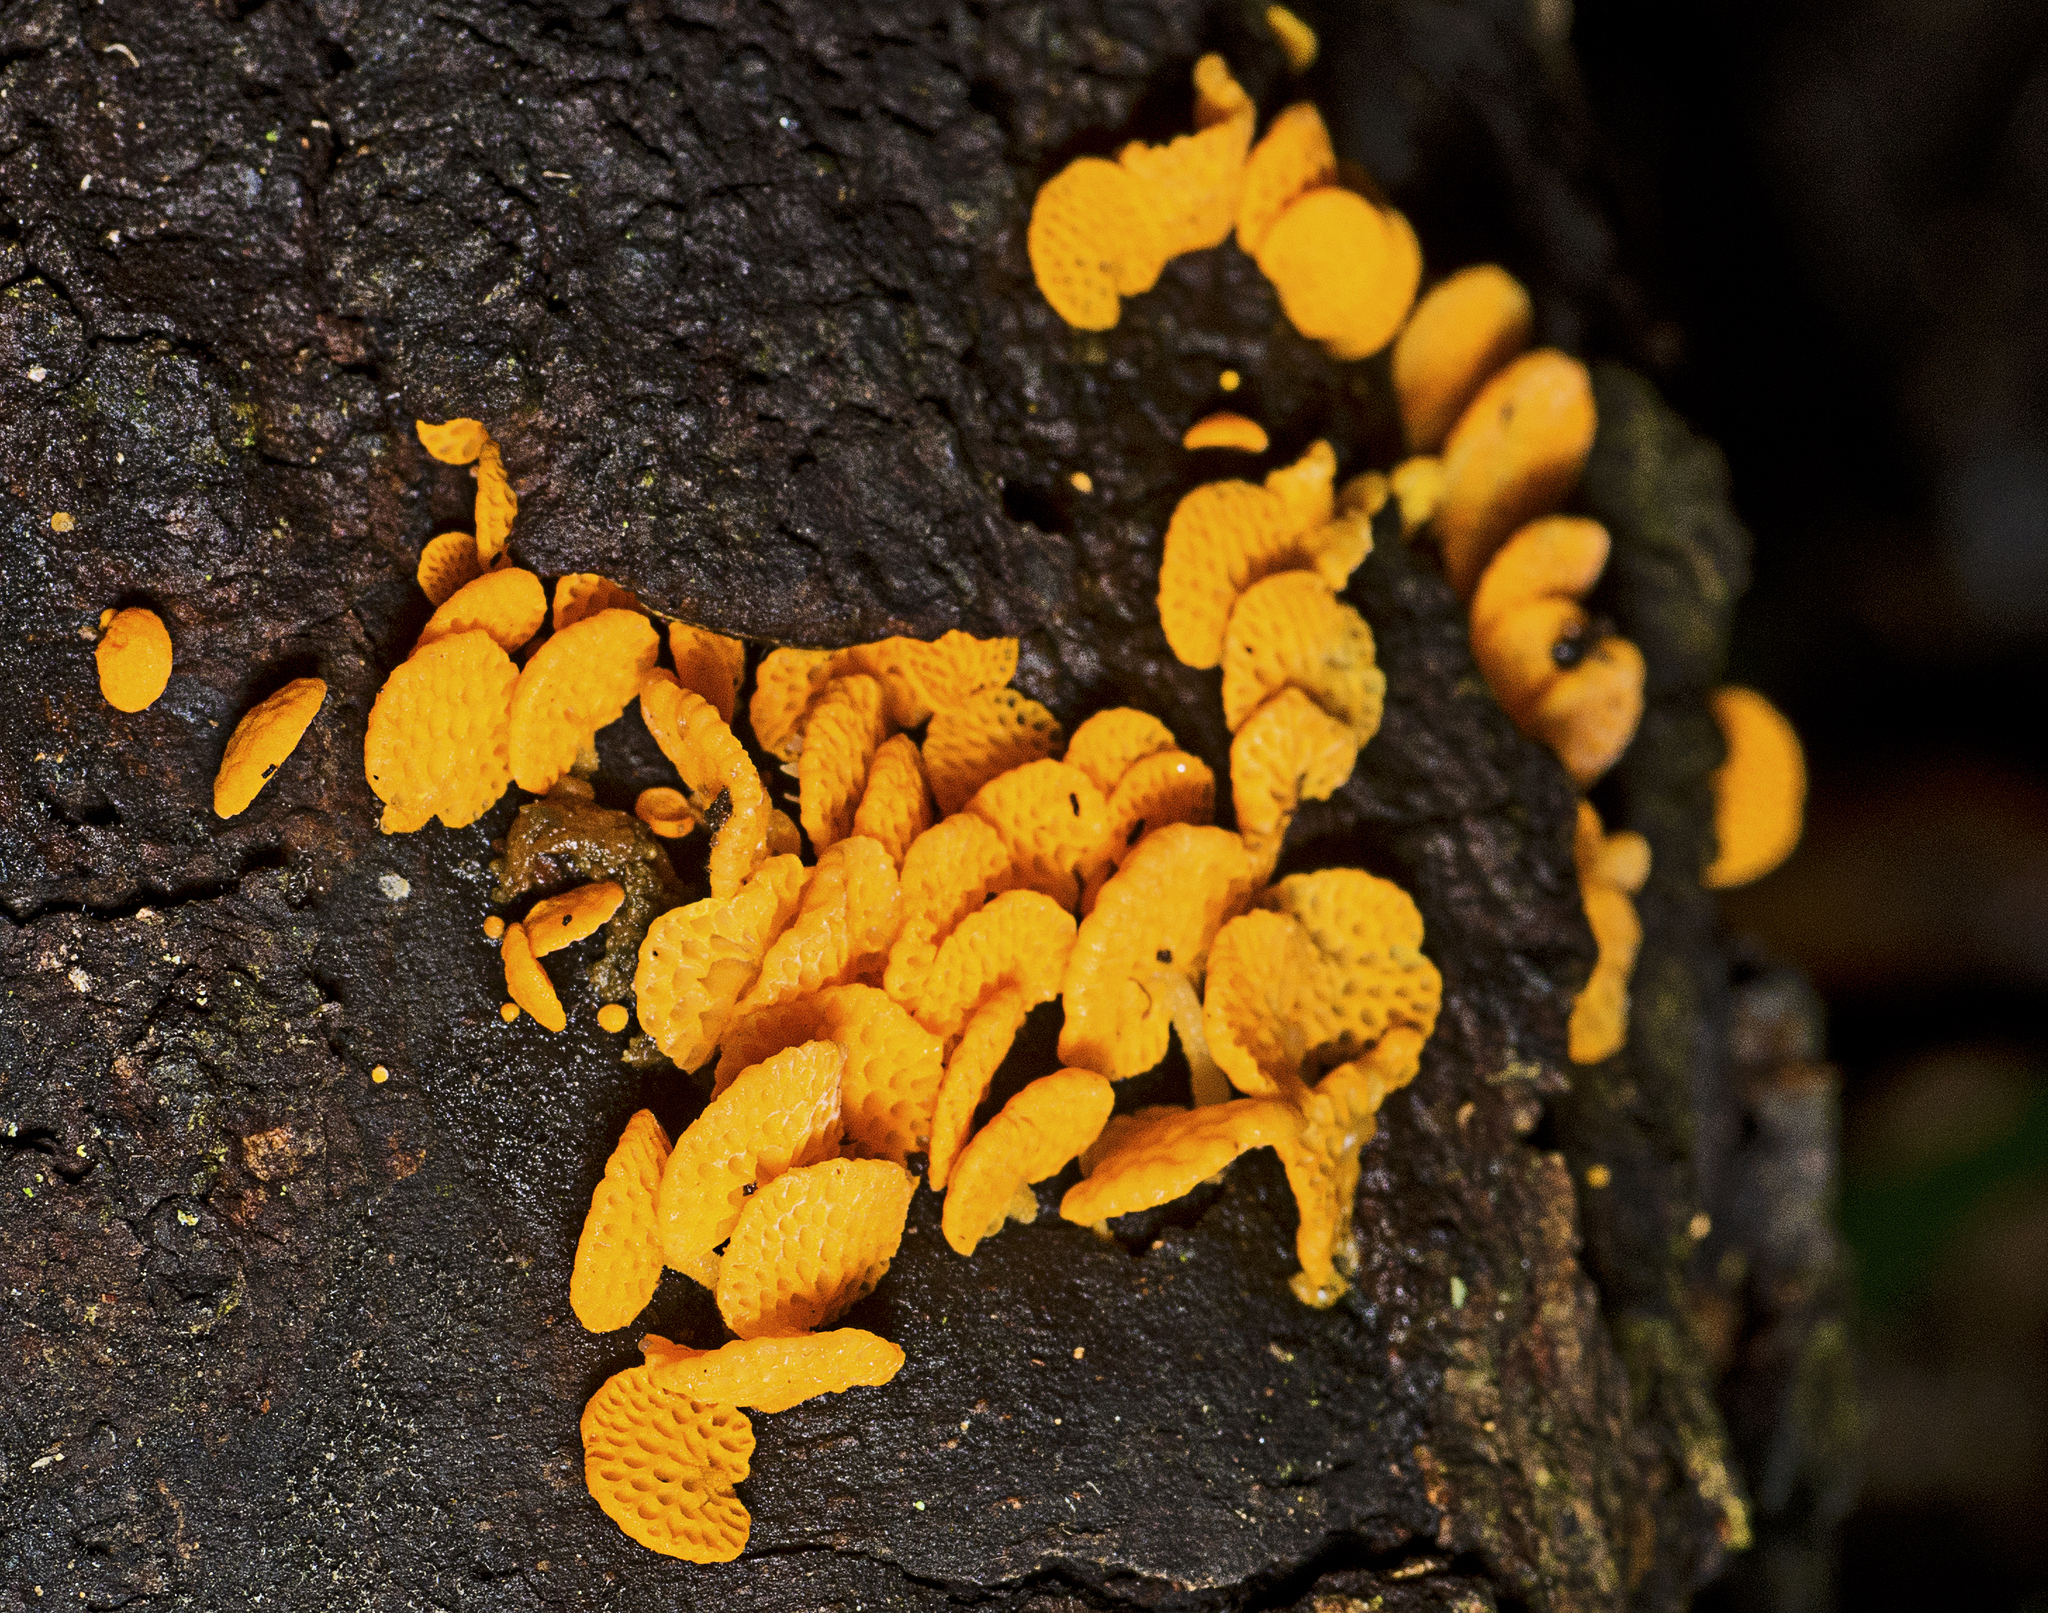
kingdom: Fungi
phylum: Basidiomycota
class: Agaricomycetes
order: Agaricales
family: Mycenaceae
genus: Favolaschia
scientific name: Favolaschia claudopus
